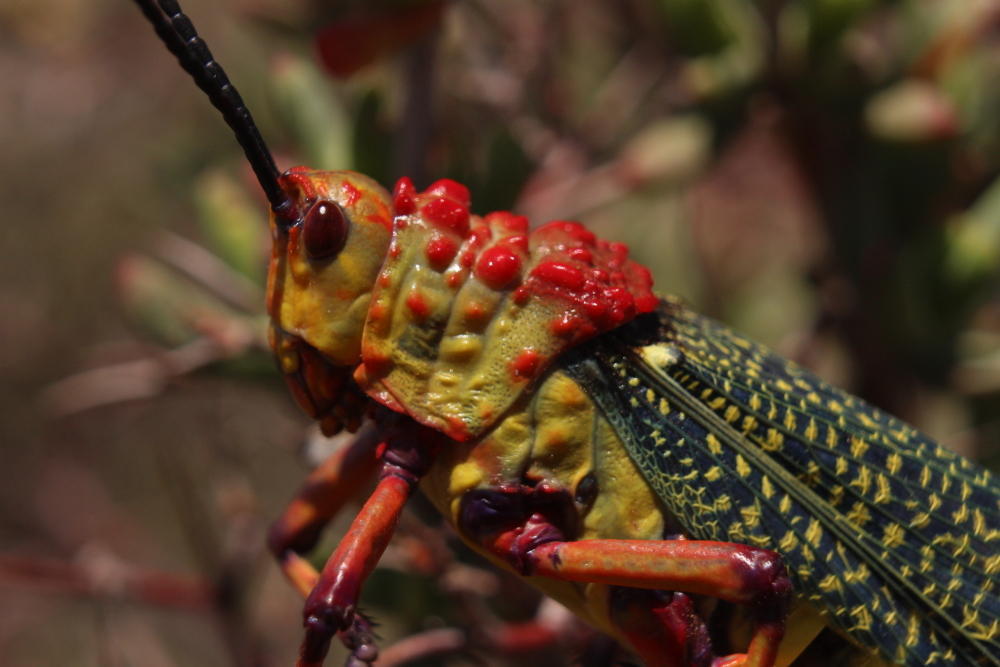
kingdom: Animalia
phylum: Arthropoda
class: Insecta
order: Orthoptera
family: Pyrgomorphidae
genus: Phymateus
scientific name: Phymateus morbillosus
